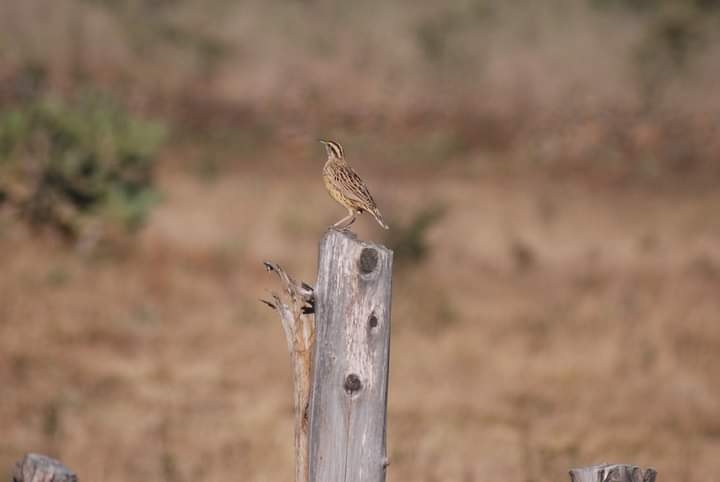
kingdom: Animalia
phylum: Chordata
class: Aves
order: Passeriformes
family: Icteridae
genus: Sturnella
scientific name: Sturnella lilianae
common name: Lilian's meadowlark
